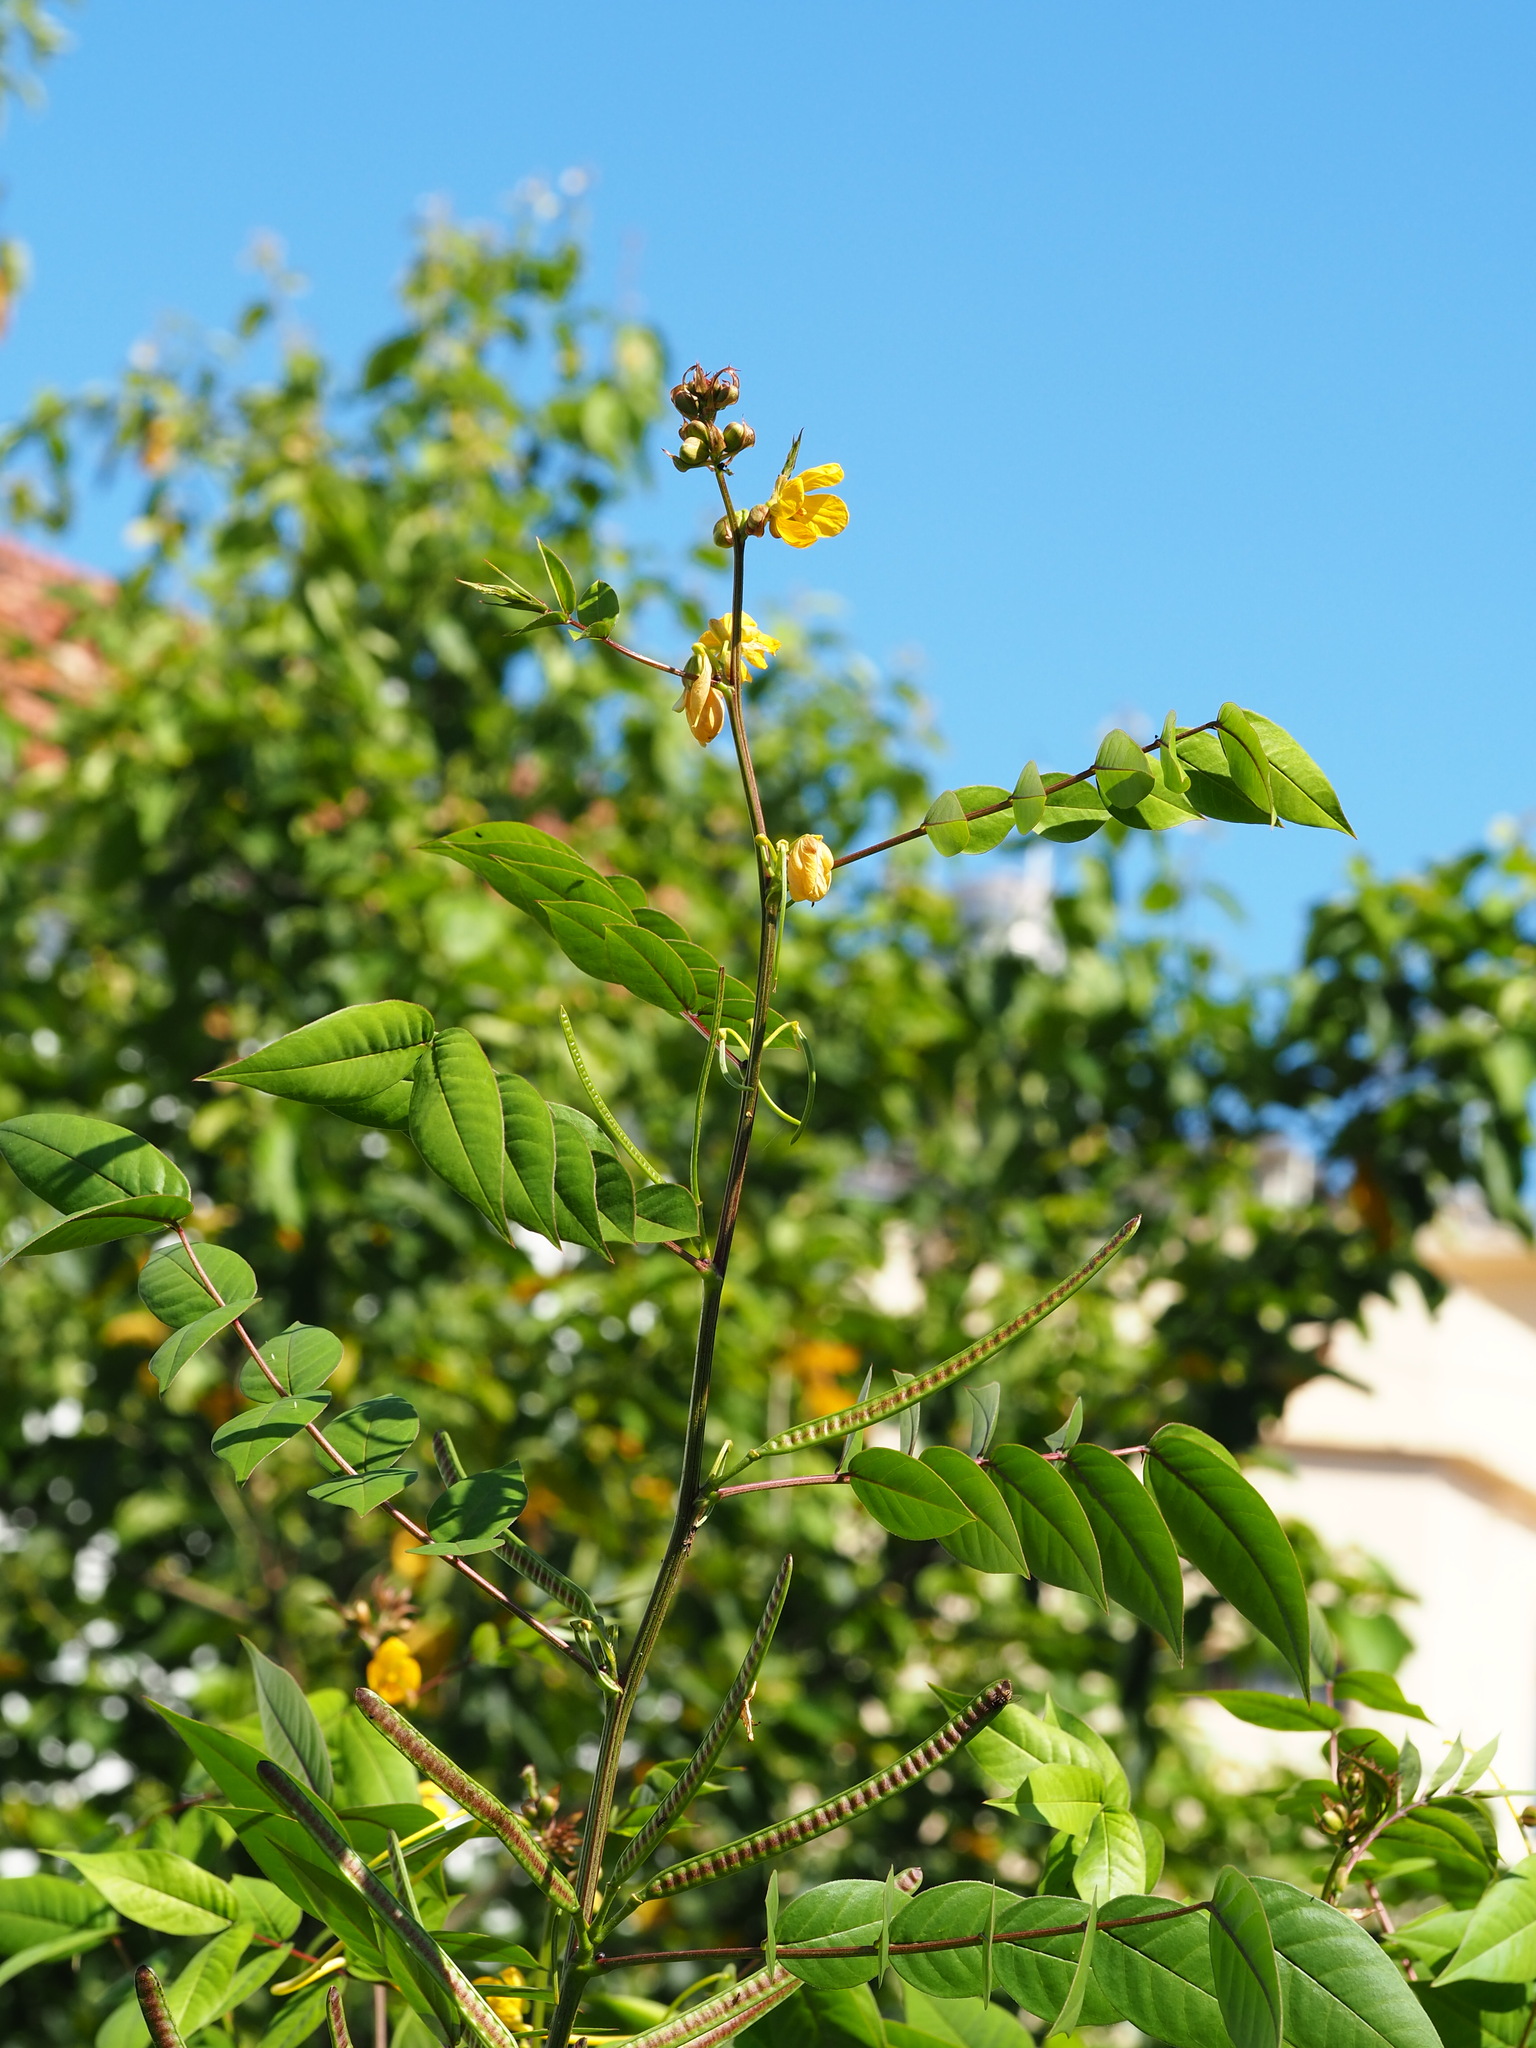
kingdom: Plantae
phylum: Tracheophyta
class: Magnoliopsida
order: Fabales
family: Fabaceae
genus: Senna
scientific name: Senna occidentalis
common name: Septicweed
